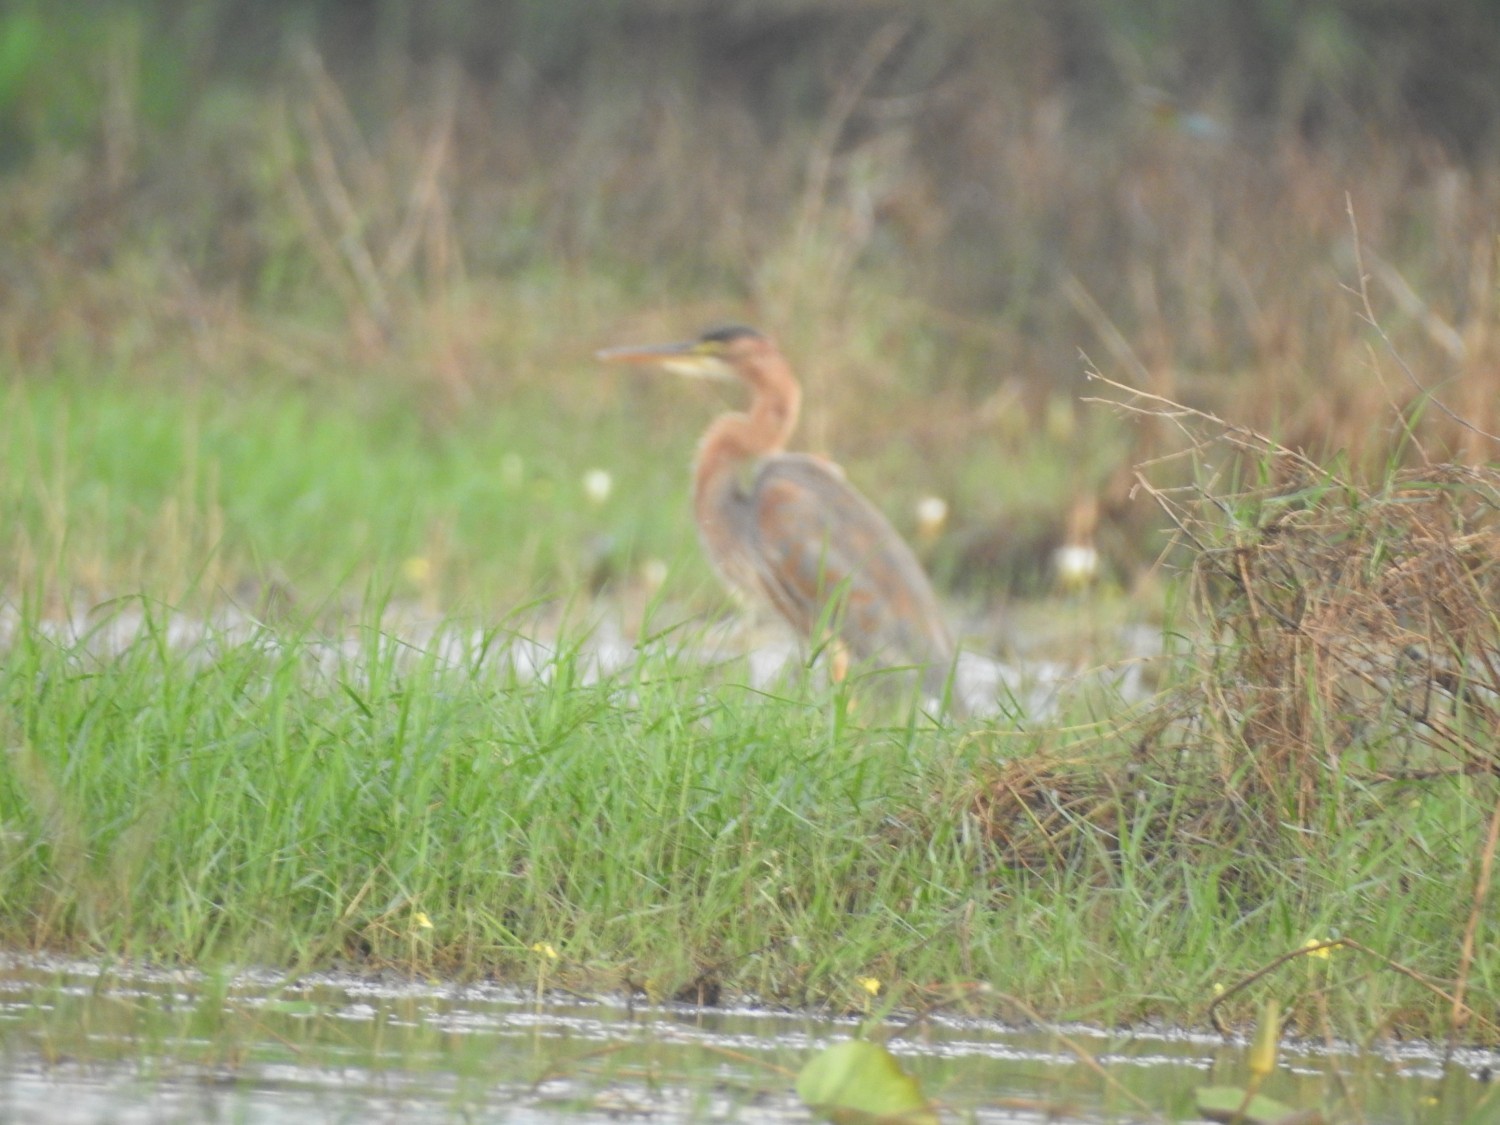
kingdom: Animalia
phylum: Chordata
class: Aves
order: Pelecaniformes
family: Ardeidae
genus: Ardea
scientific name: Ardea purpurea
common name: Purple heron
